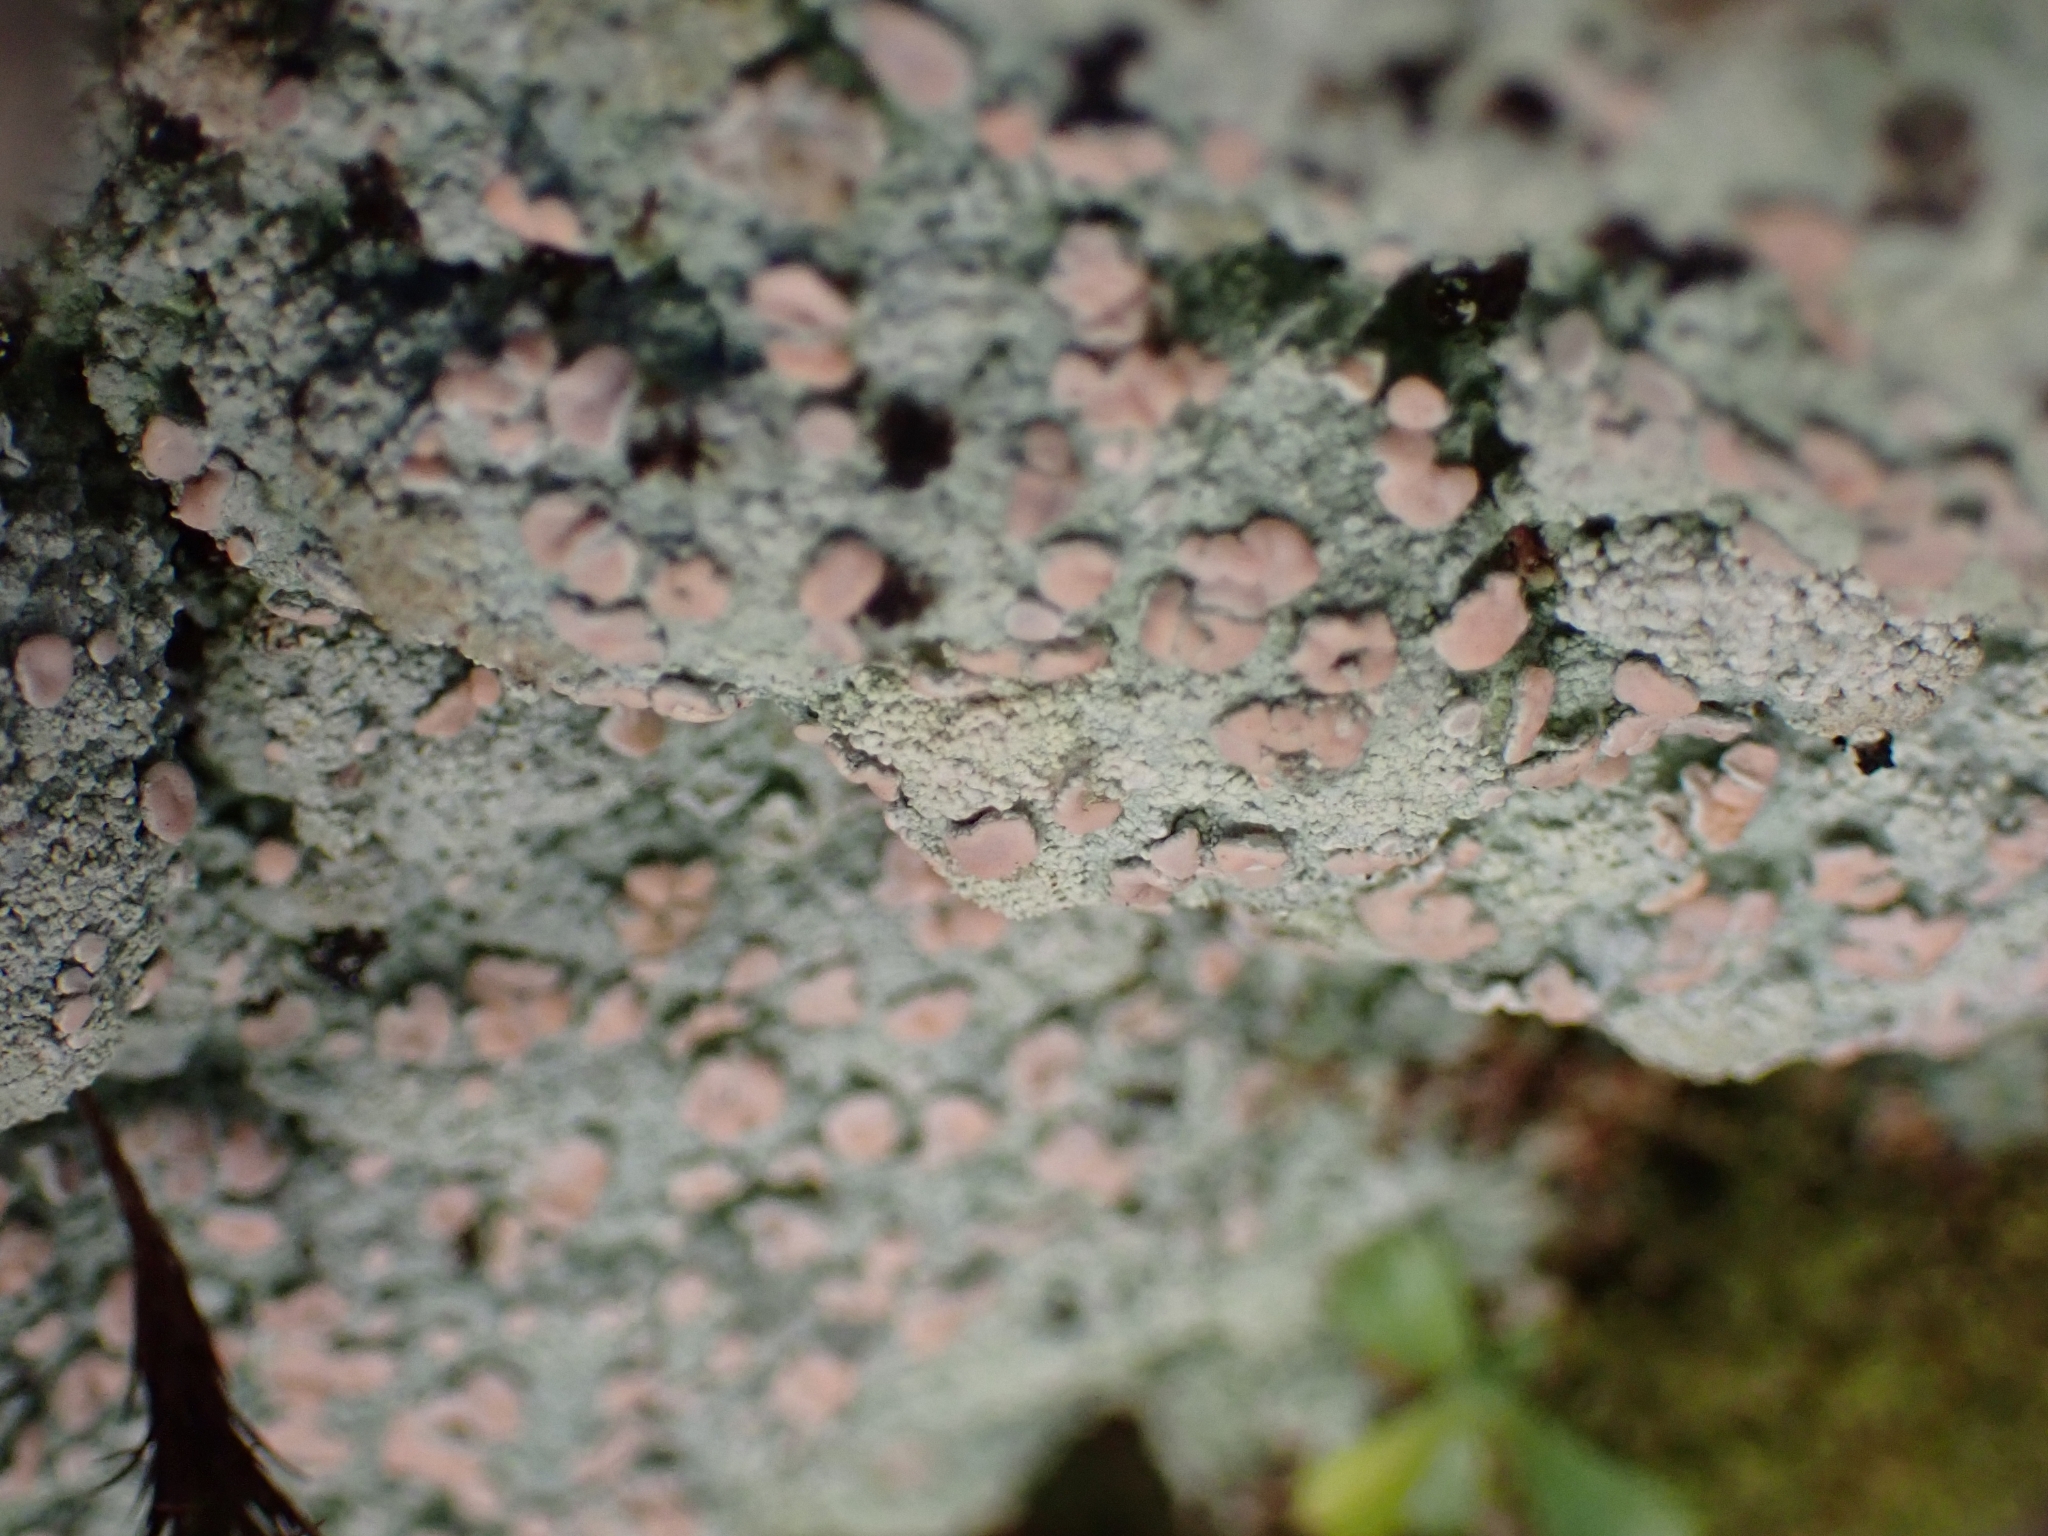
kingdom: Fungi
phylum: Ascomycota
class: Lecanoromycetes
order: Pertusariales
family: Icmadophilaceae
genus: Icmadophila
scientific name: Icmadophila ericetorum
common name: Candy lichen
